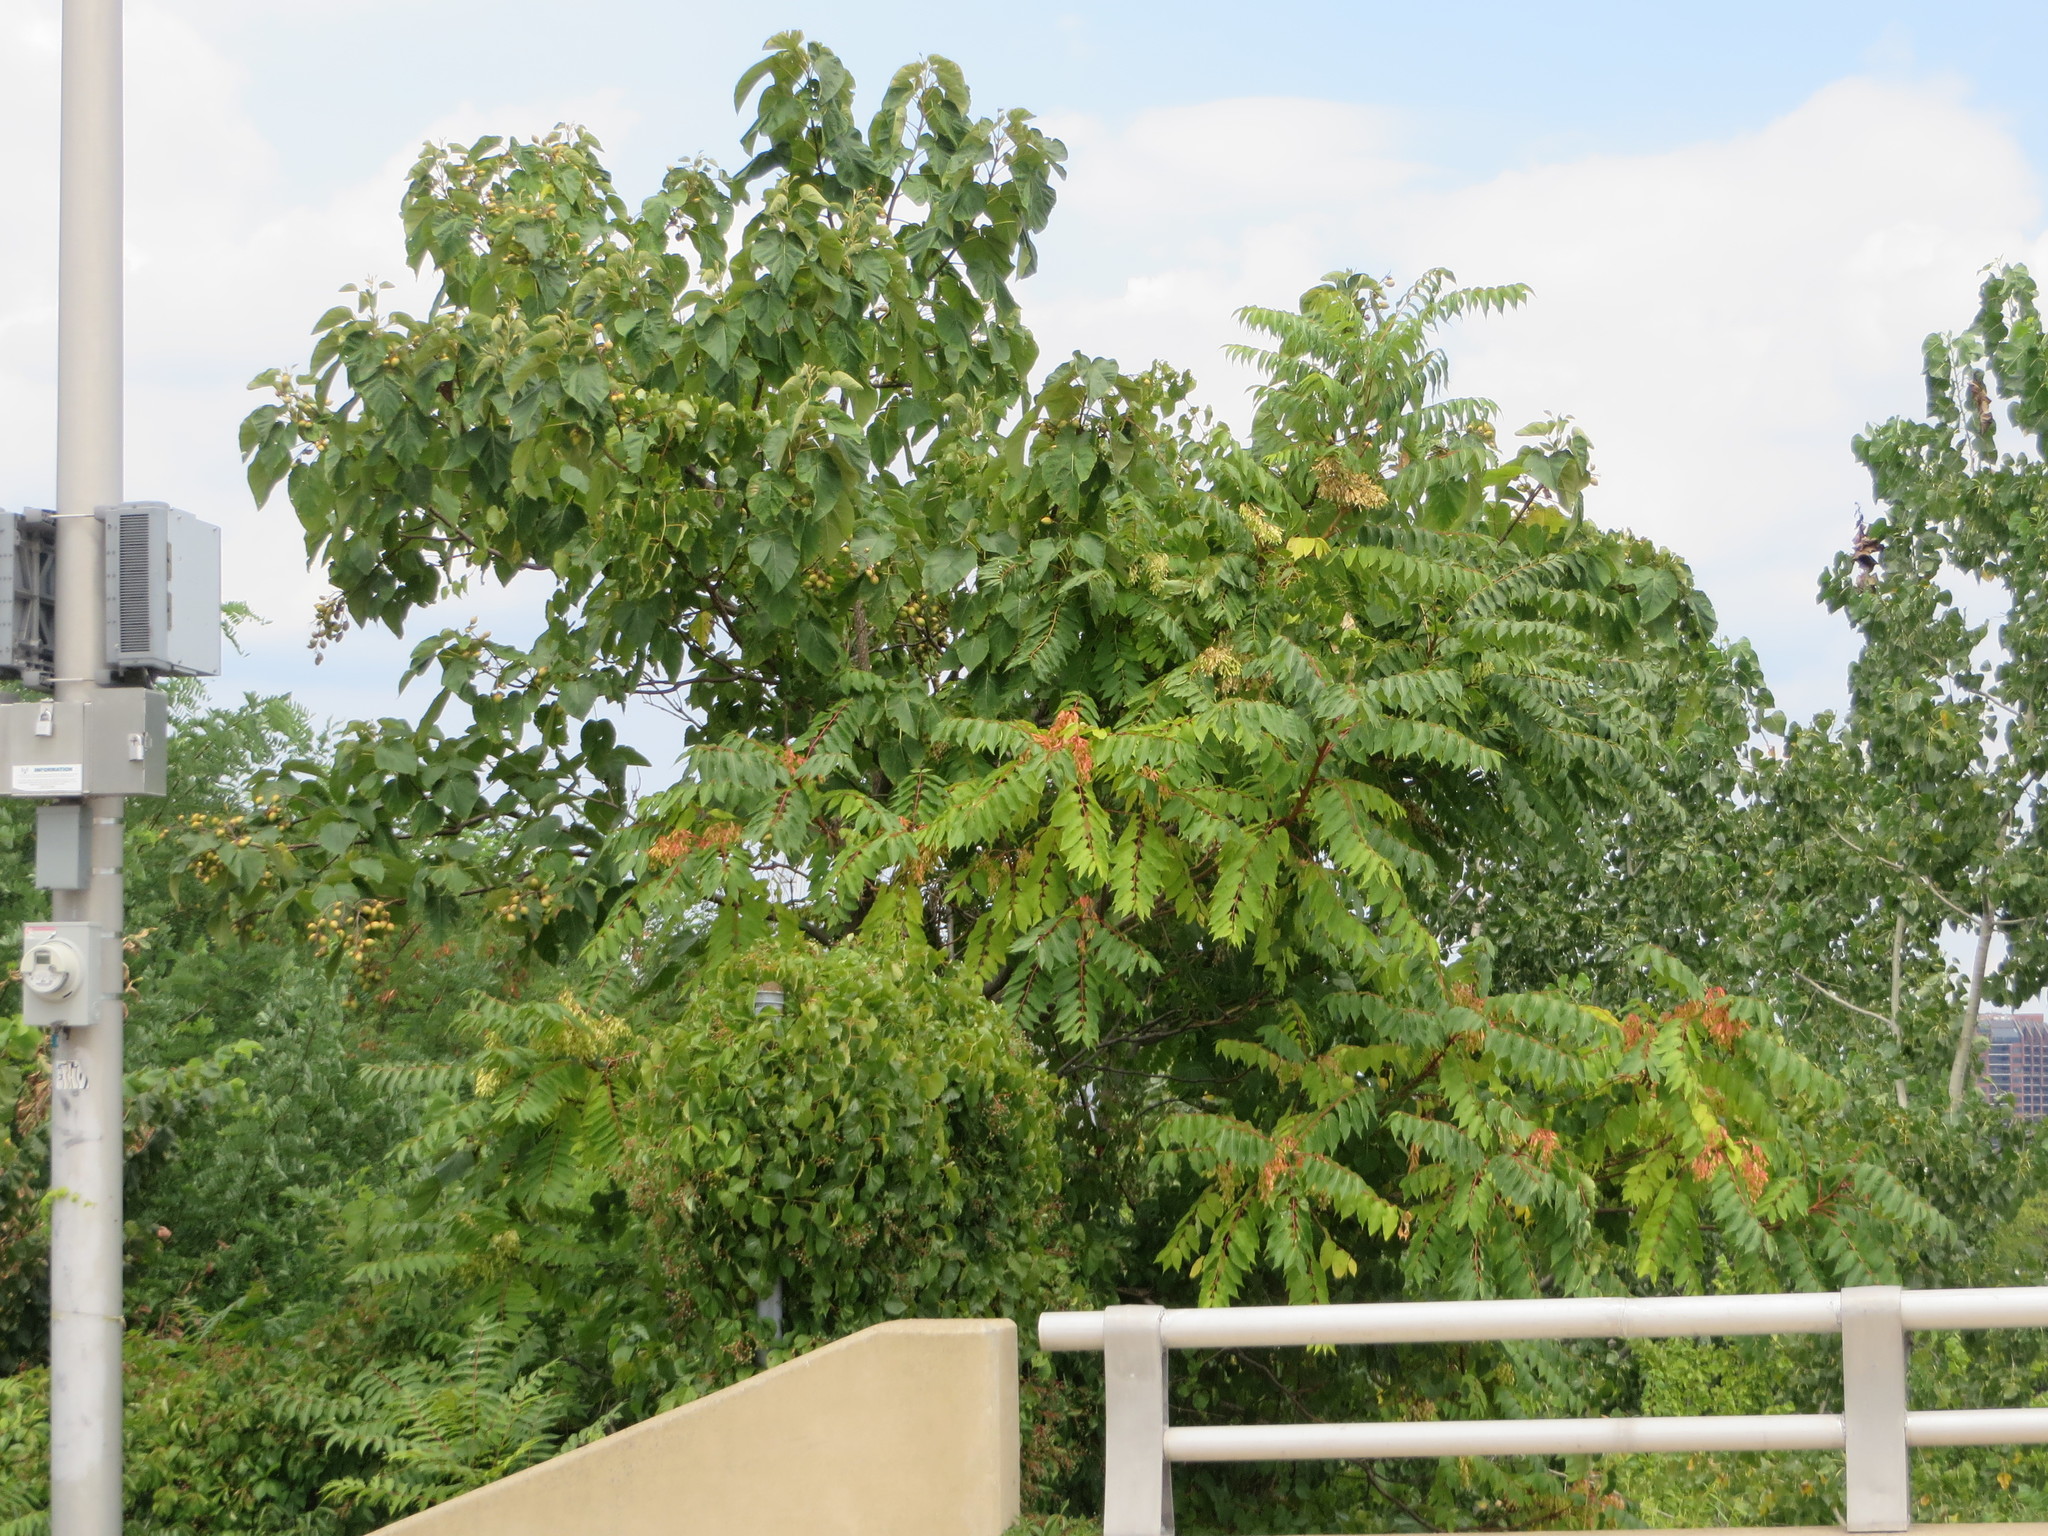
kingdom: Plantae
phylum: Tracheophyta
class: Magnoliopsida
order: Sapindales
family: Simaroubaceae
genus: Ailanthus
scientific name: Ailanthus altissima
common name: Tree-of-heaven
